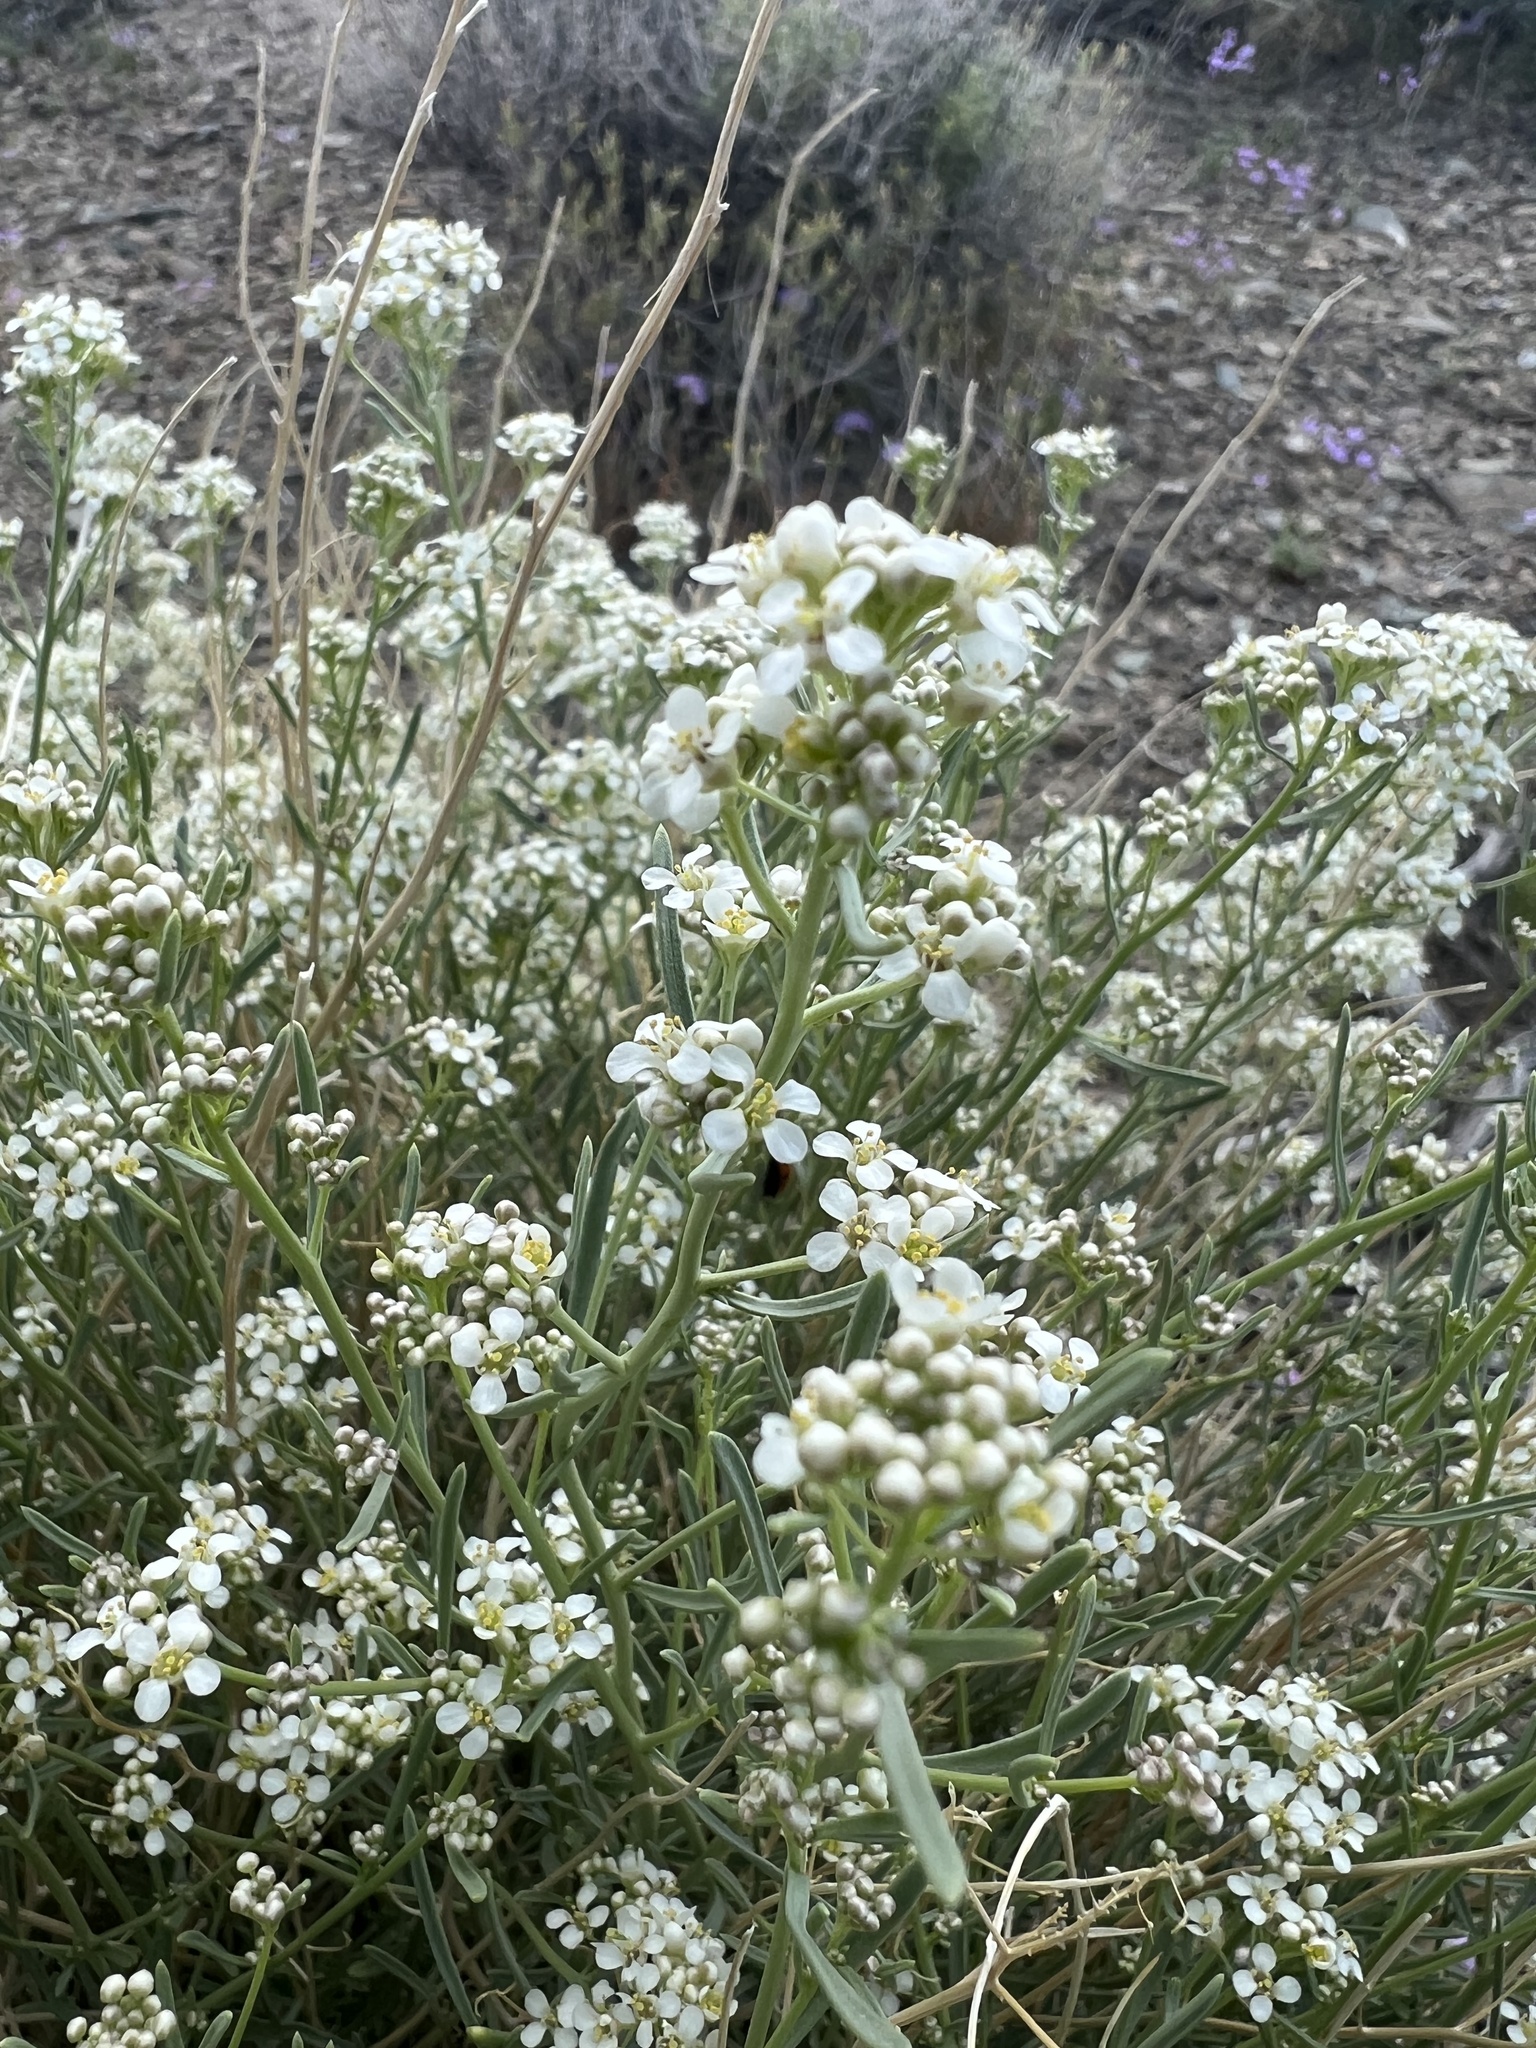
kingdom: Plantae
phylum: Tracheophyta
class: Magnoliopsida
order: Brassicales
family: Brassicaceae
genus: Lepidium
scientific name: Lepidium fremontii
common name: Fremont's pepperwort
